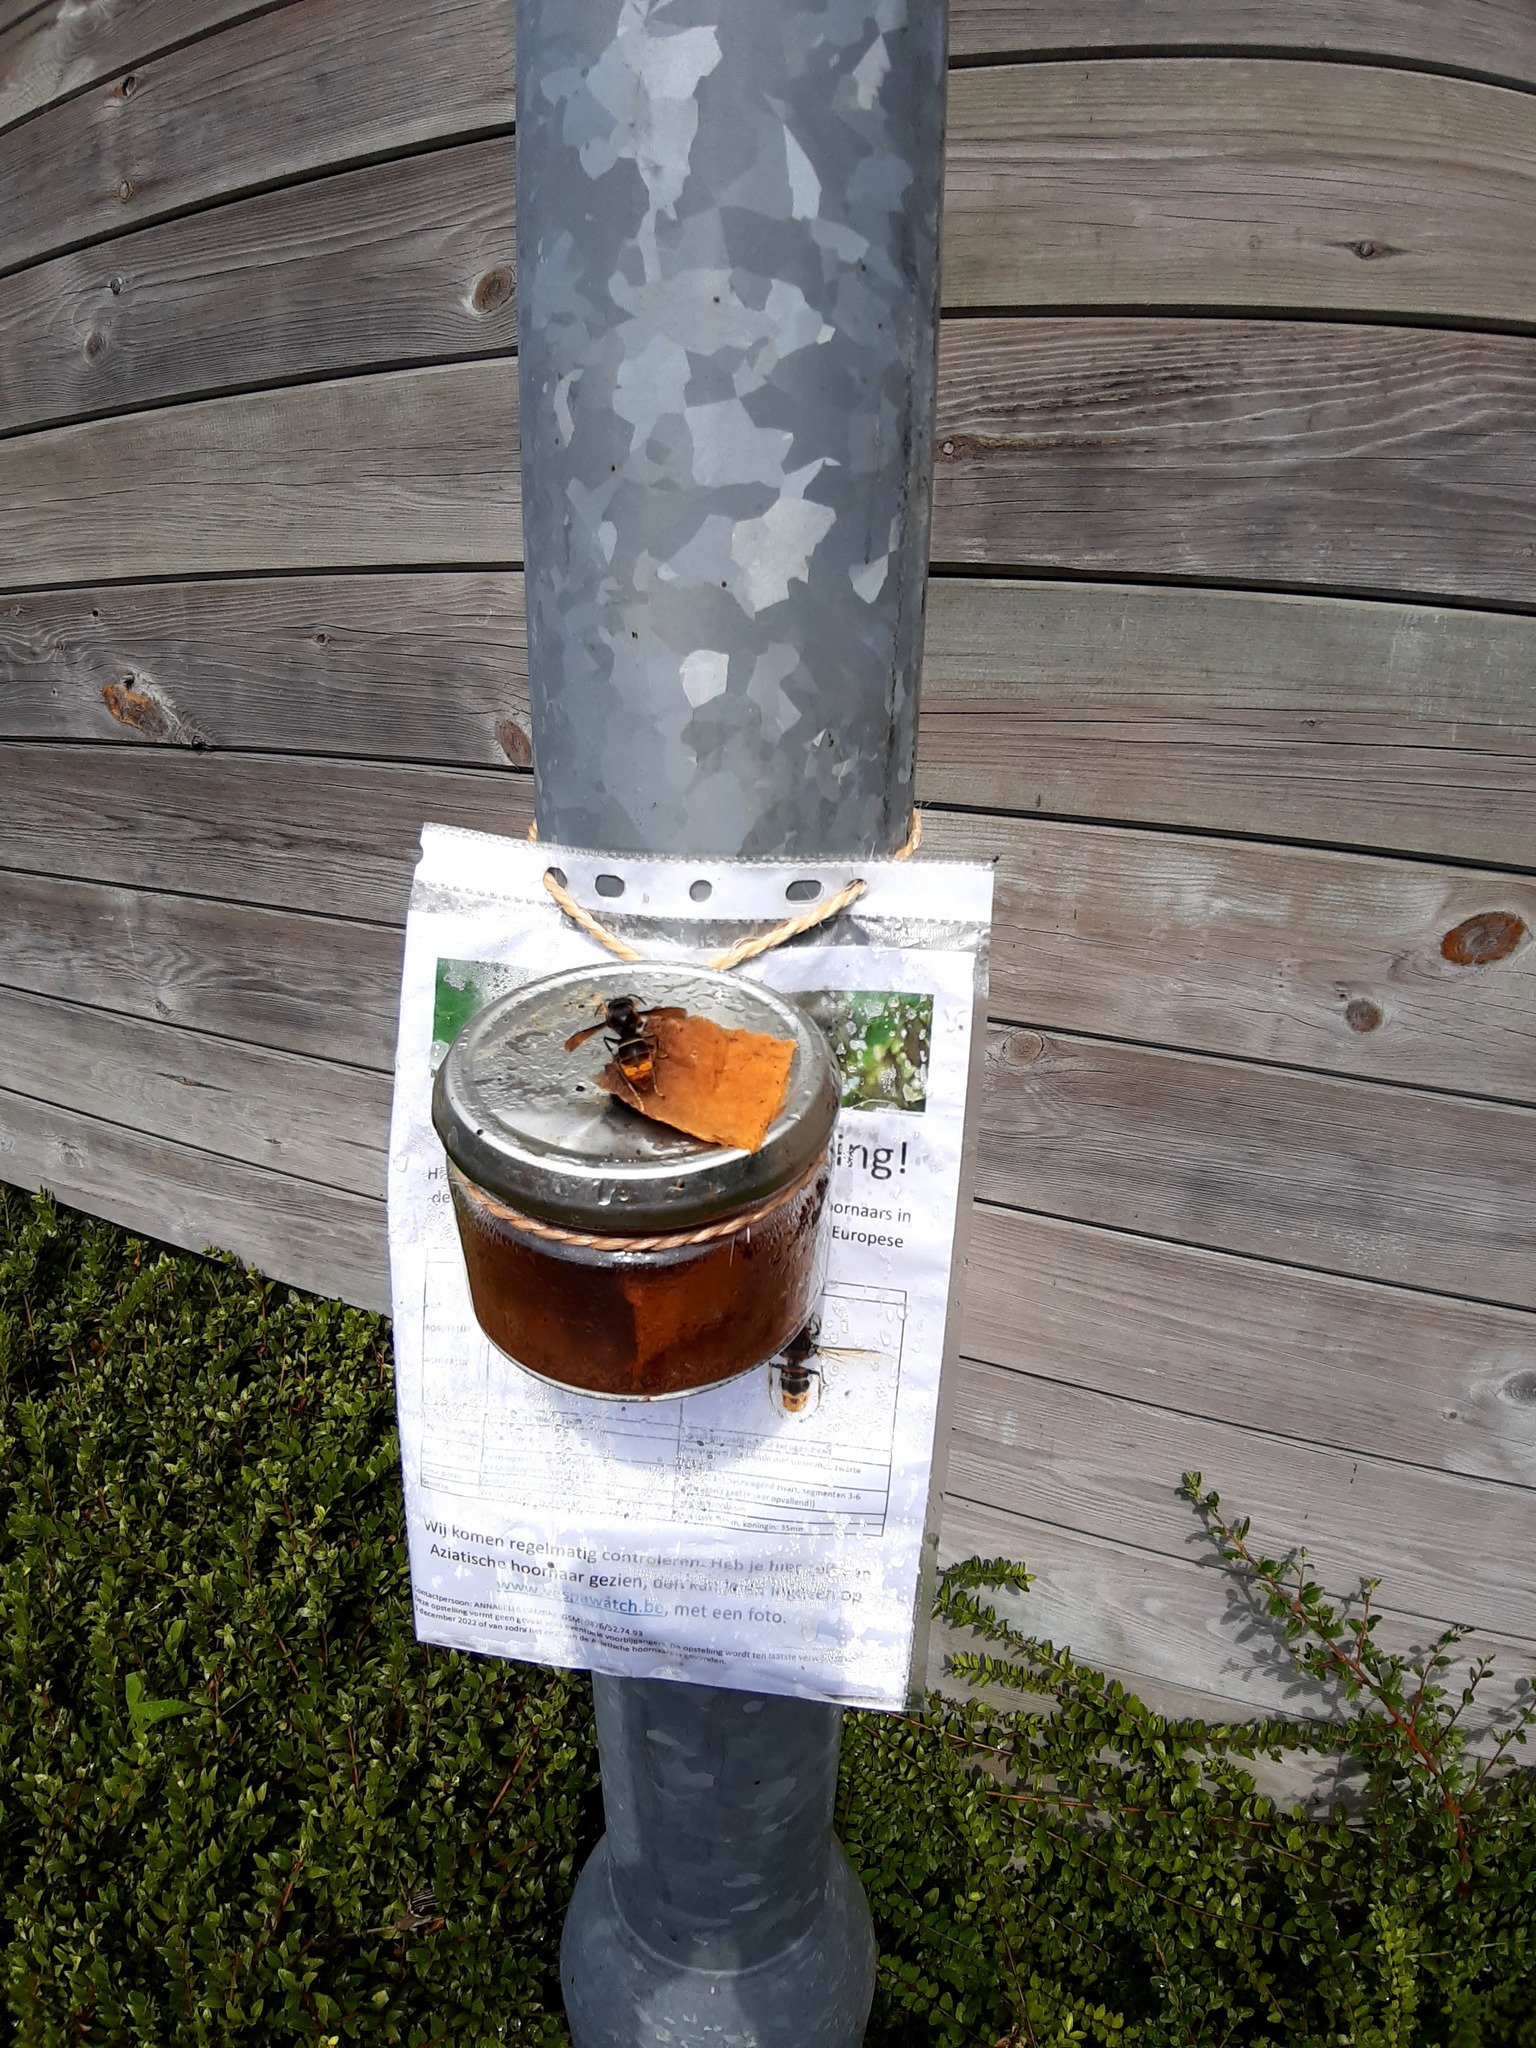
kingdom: Animalia
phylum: Arthropoda
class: Insecta
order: Hymenoptera
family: Vespidae
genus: Vespa
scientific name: Vespa velutina
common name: Asian hornet
